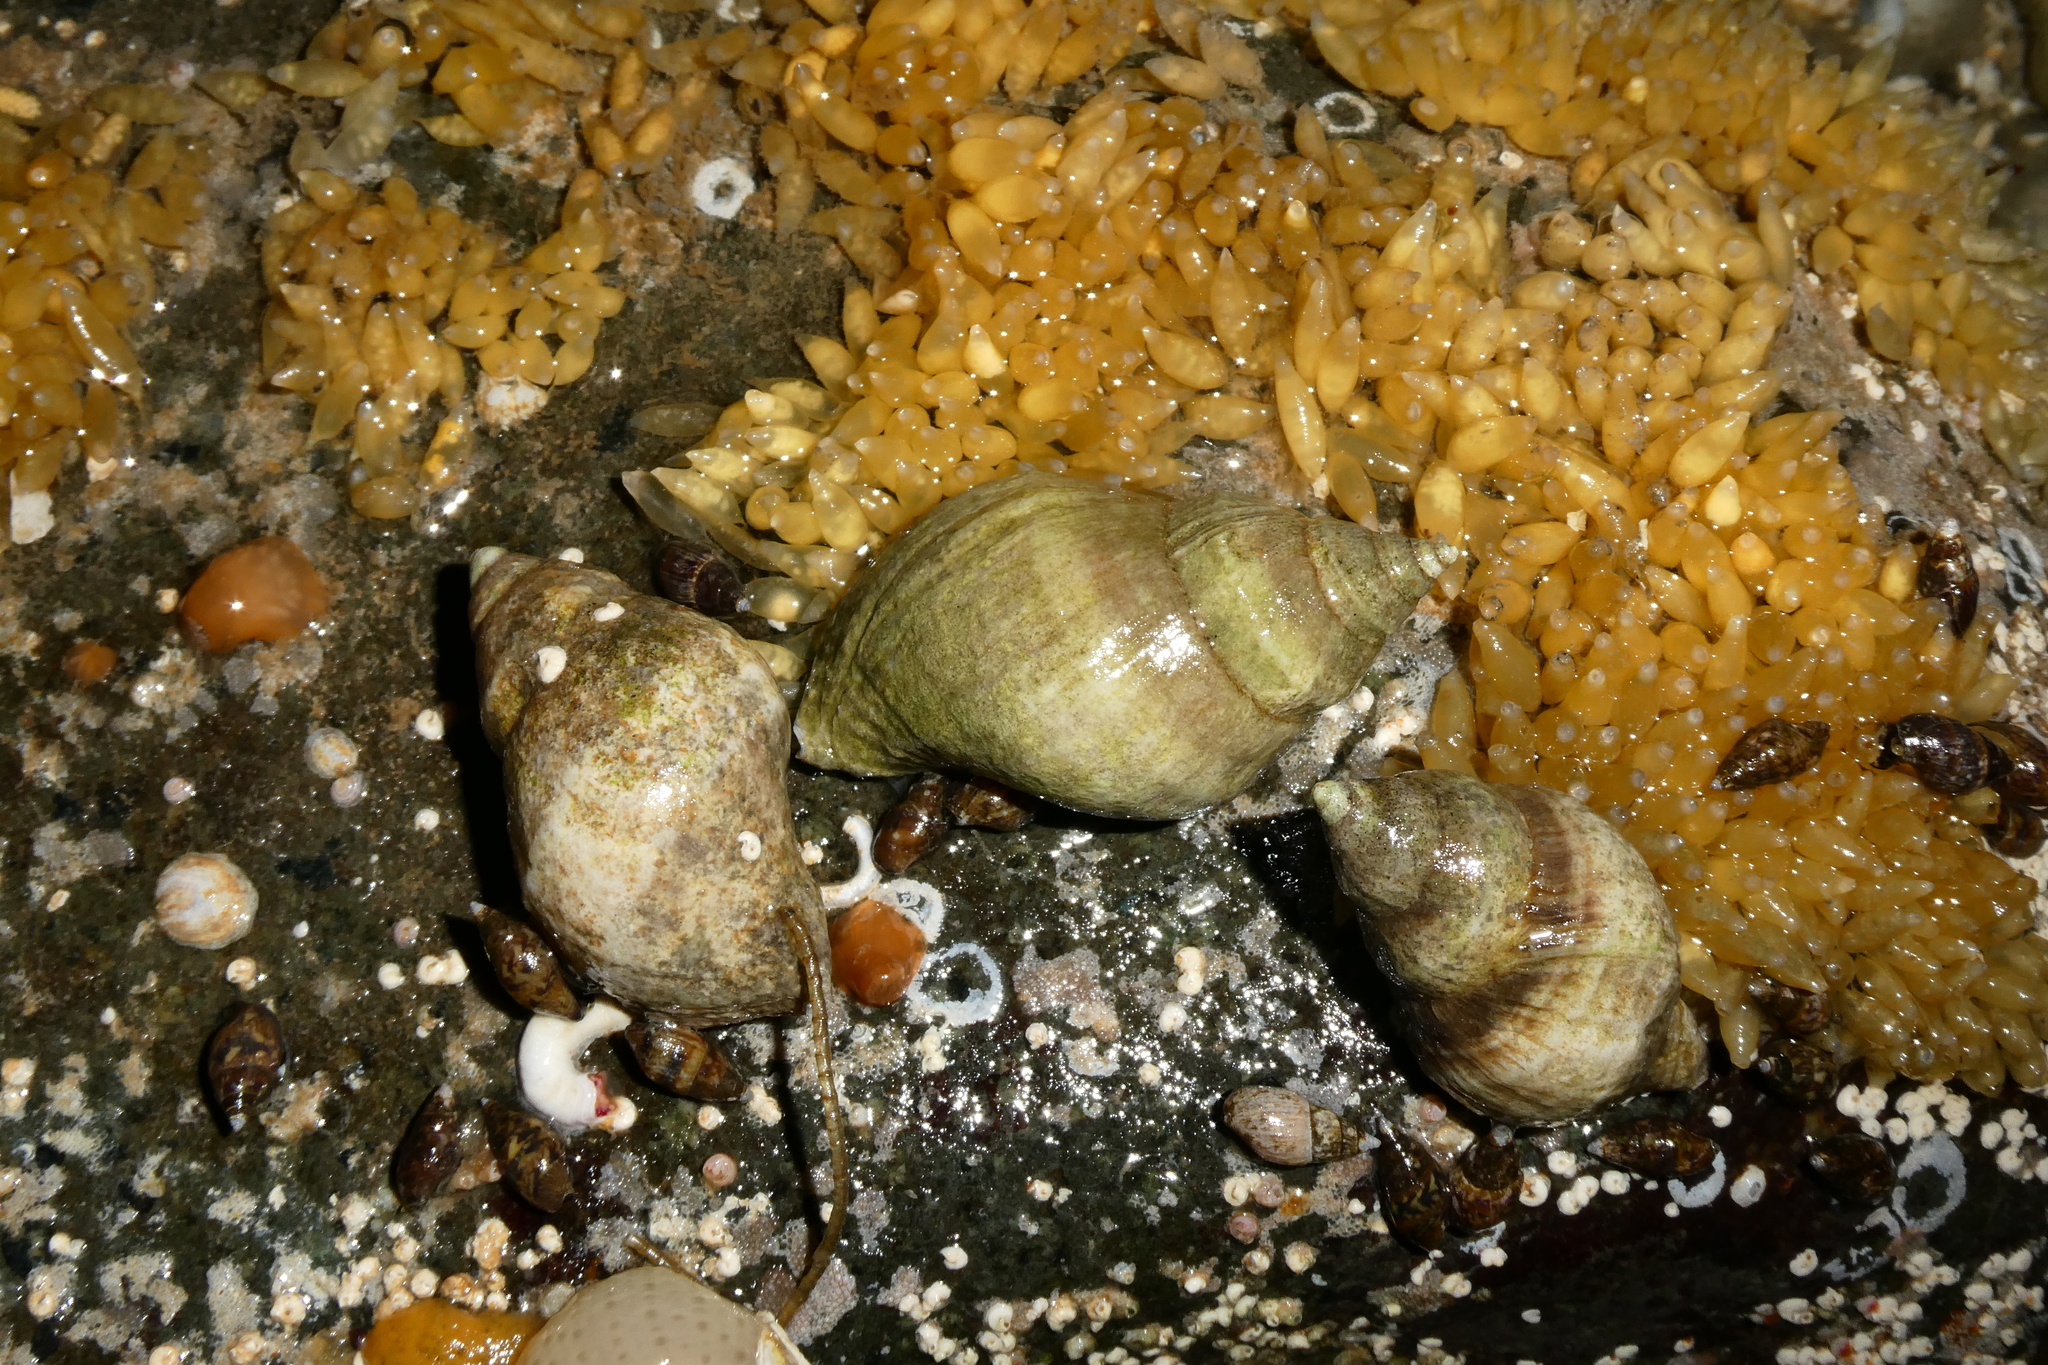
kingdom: Animalia
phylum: Mollusca
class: Gastropoda
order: Neogastropoda
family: Muricidae
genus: Nucella
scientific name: Nucella lamellosa
